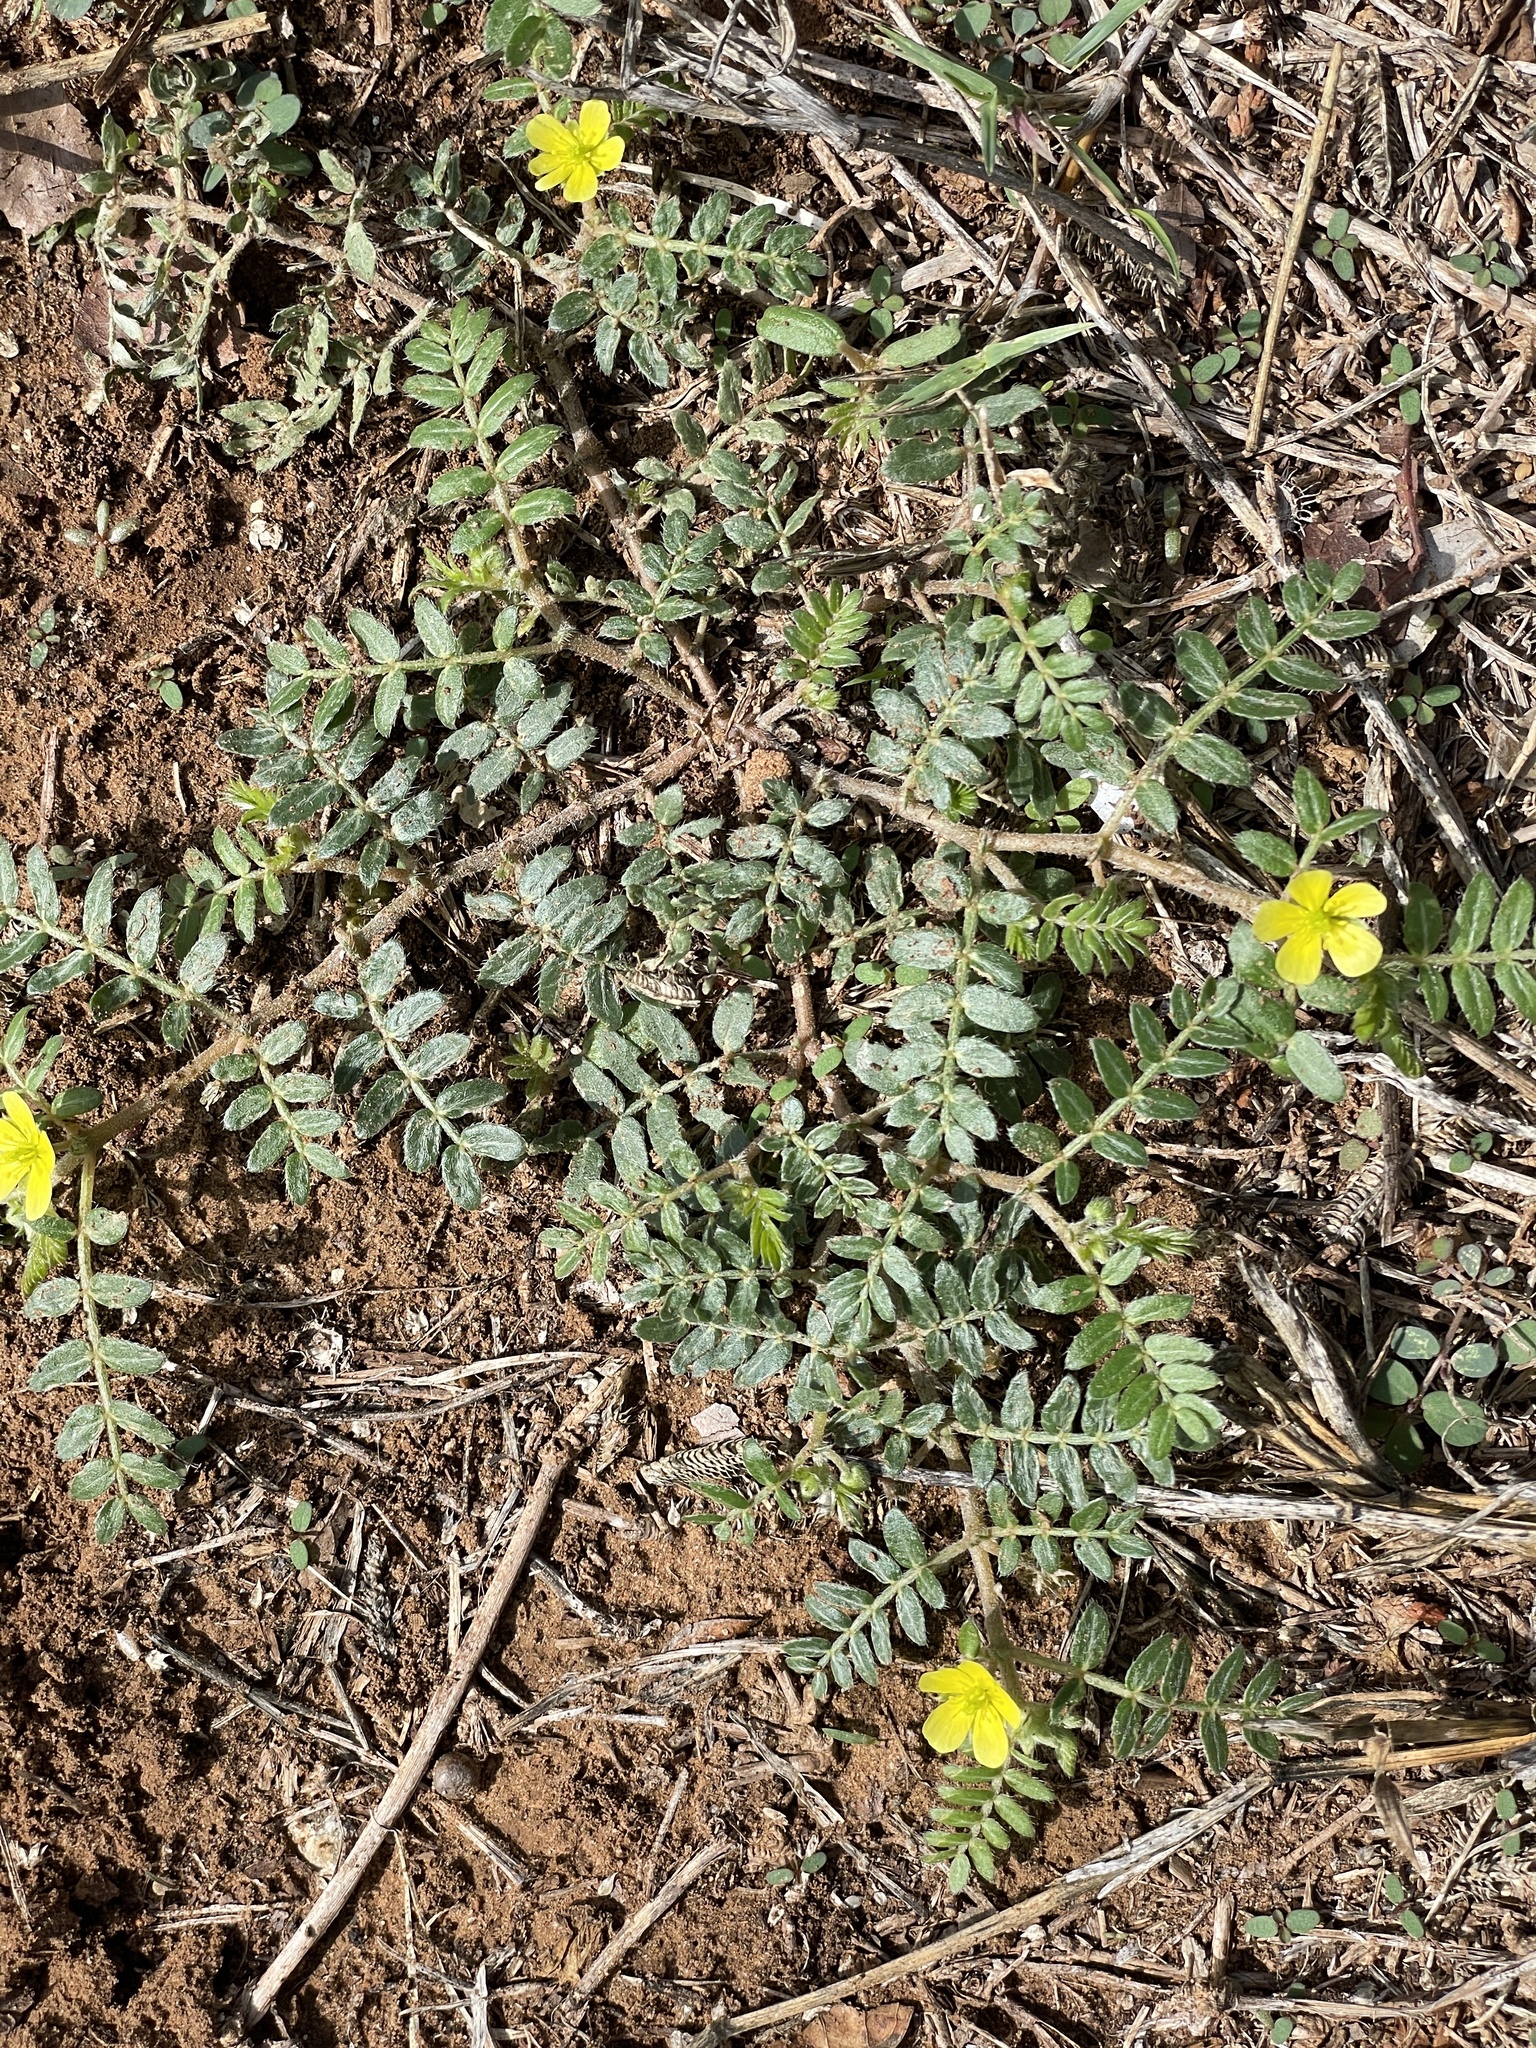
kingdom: Plantae
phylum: Tracheophyta
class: Magnoliopsida
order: Zygophyllales
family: Zygophyllaceae
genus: Tribulus
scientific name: Tribulus terrestris
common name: Puncturevine
